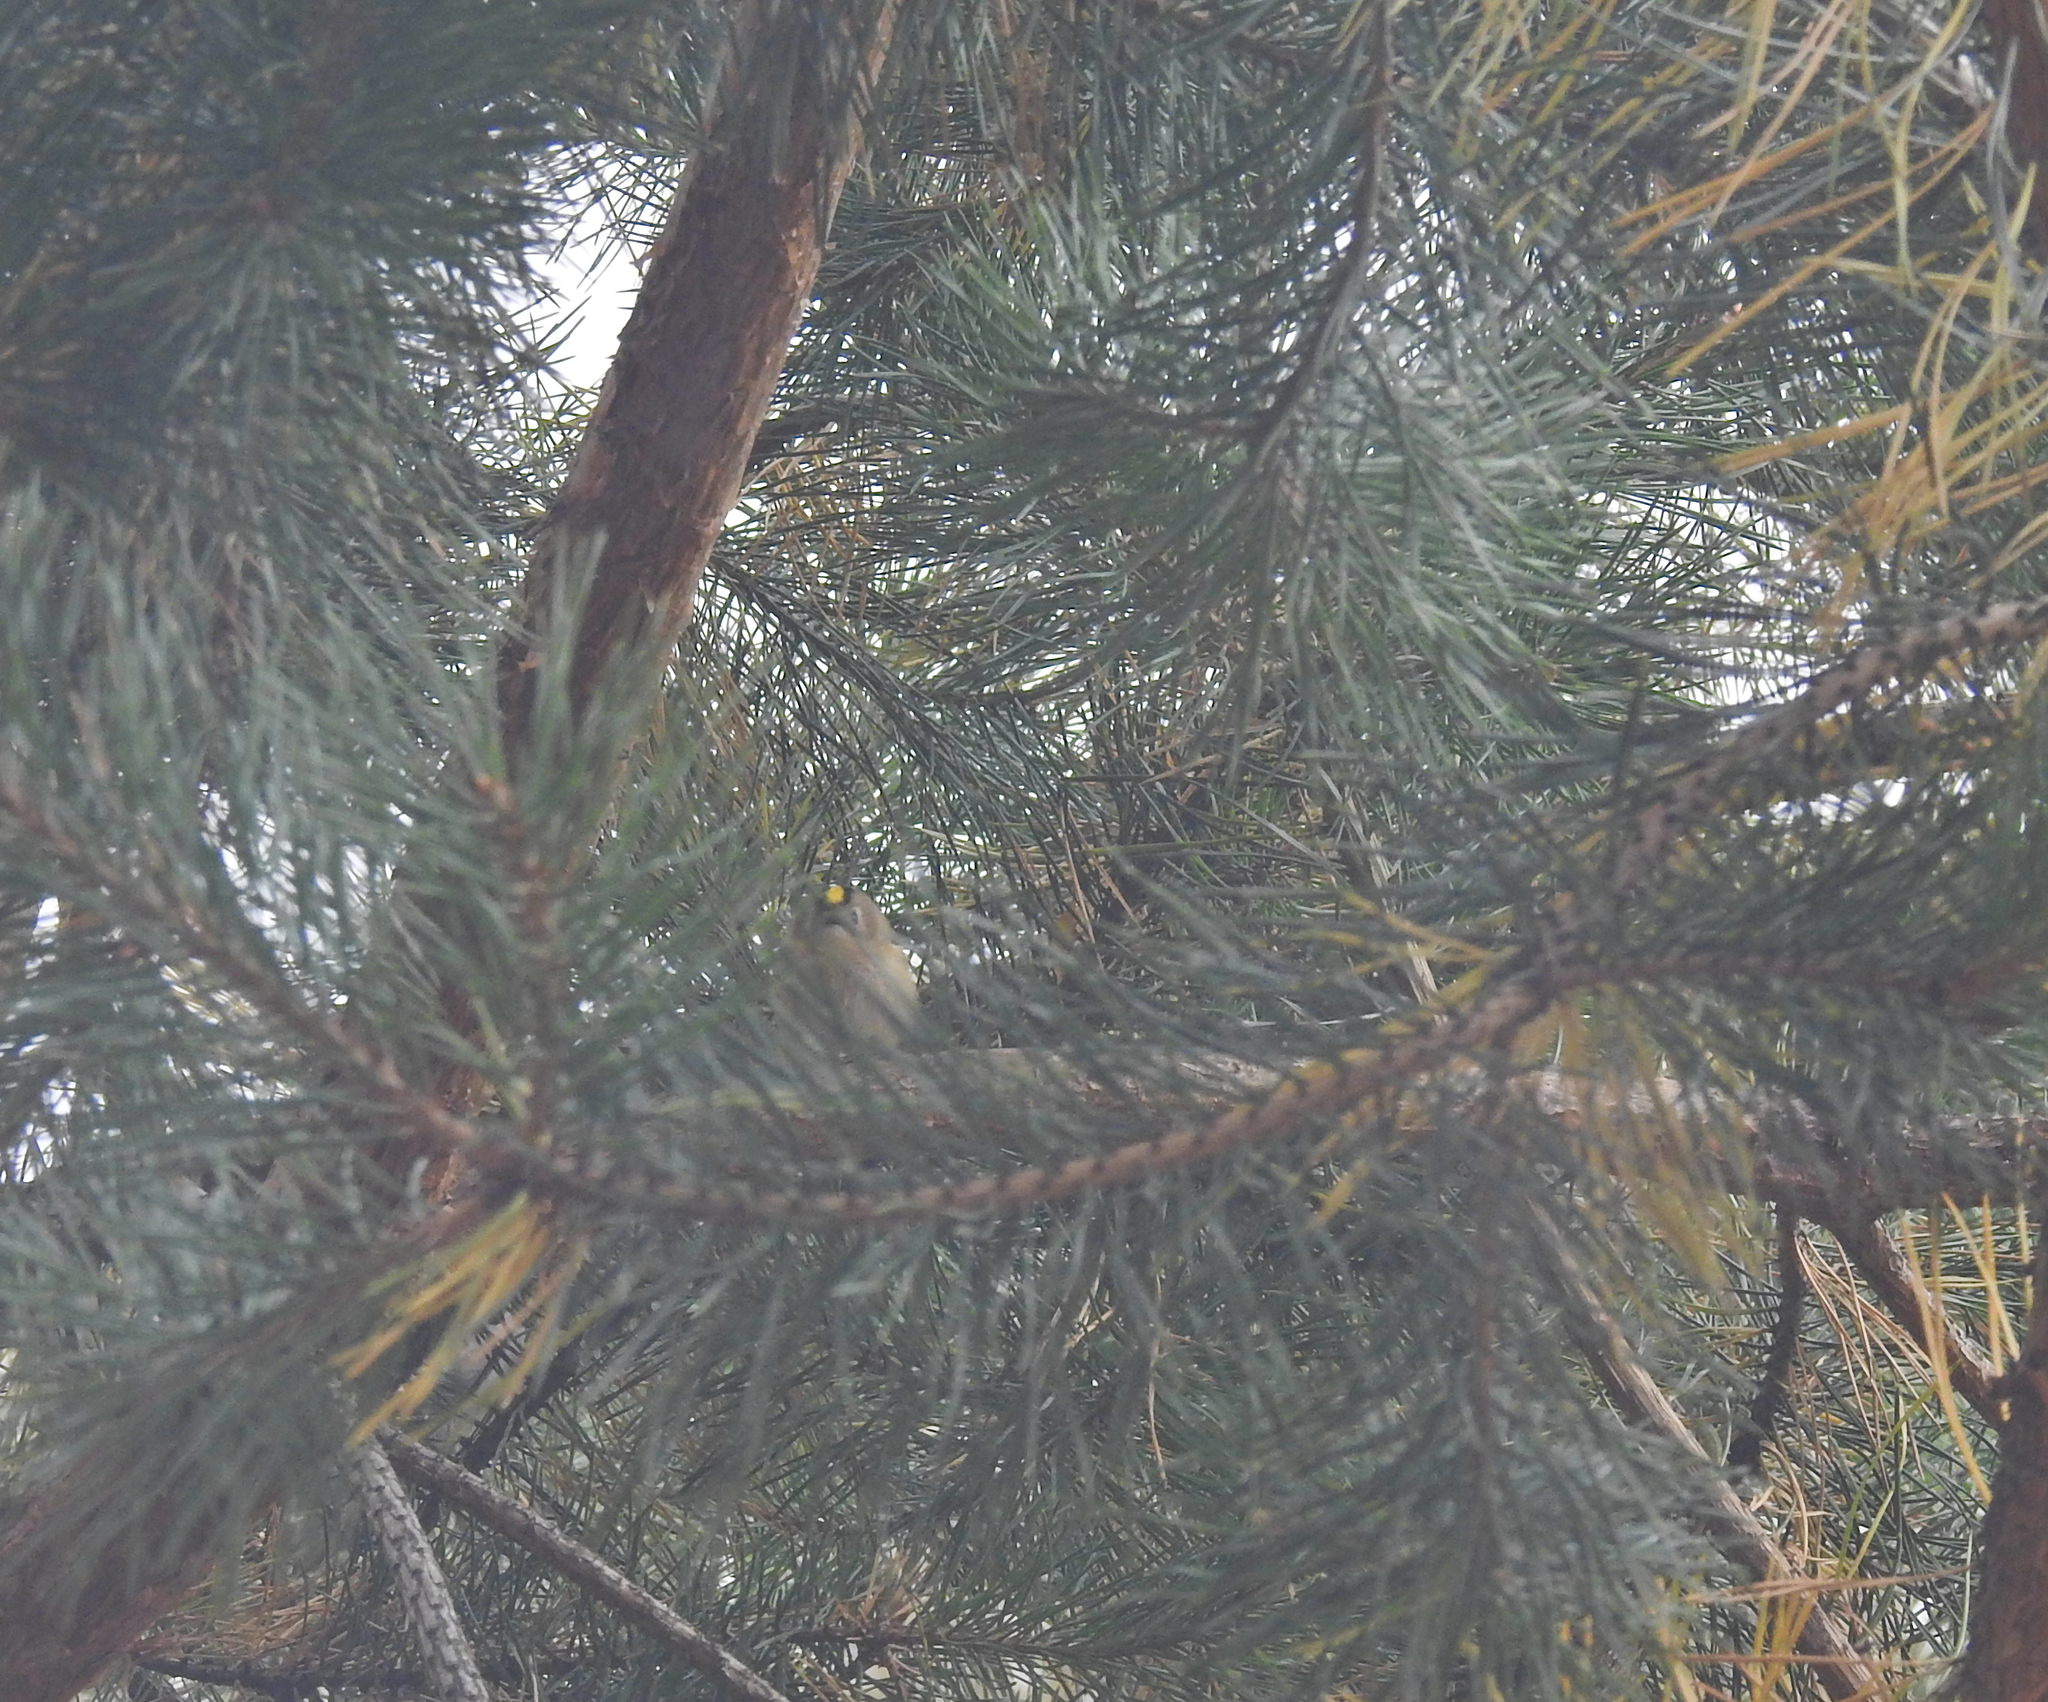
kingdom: Animalia
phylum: Chordata
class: Aves
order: Passeriformes
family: Regulidae
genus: Regulus
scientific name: Regulus regulus
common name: Goldcrest
